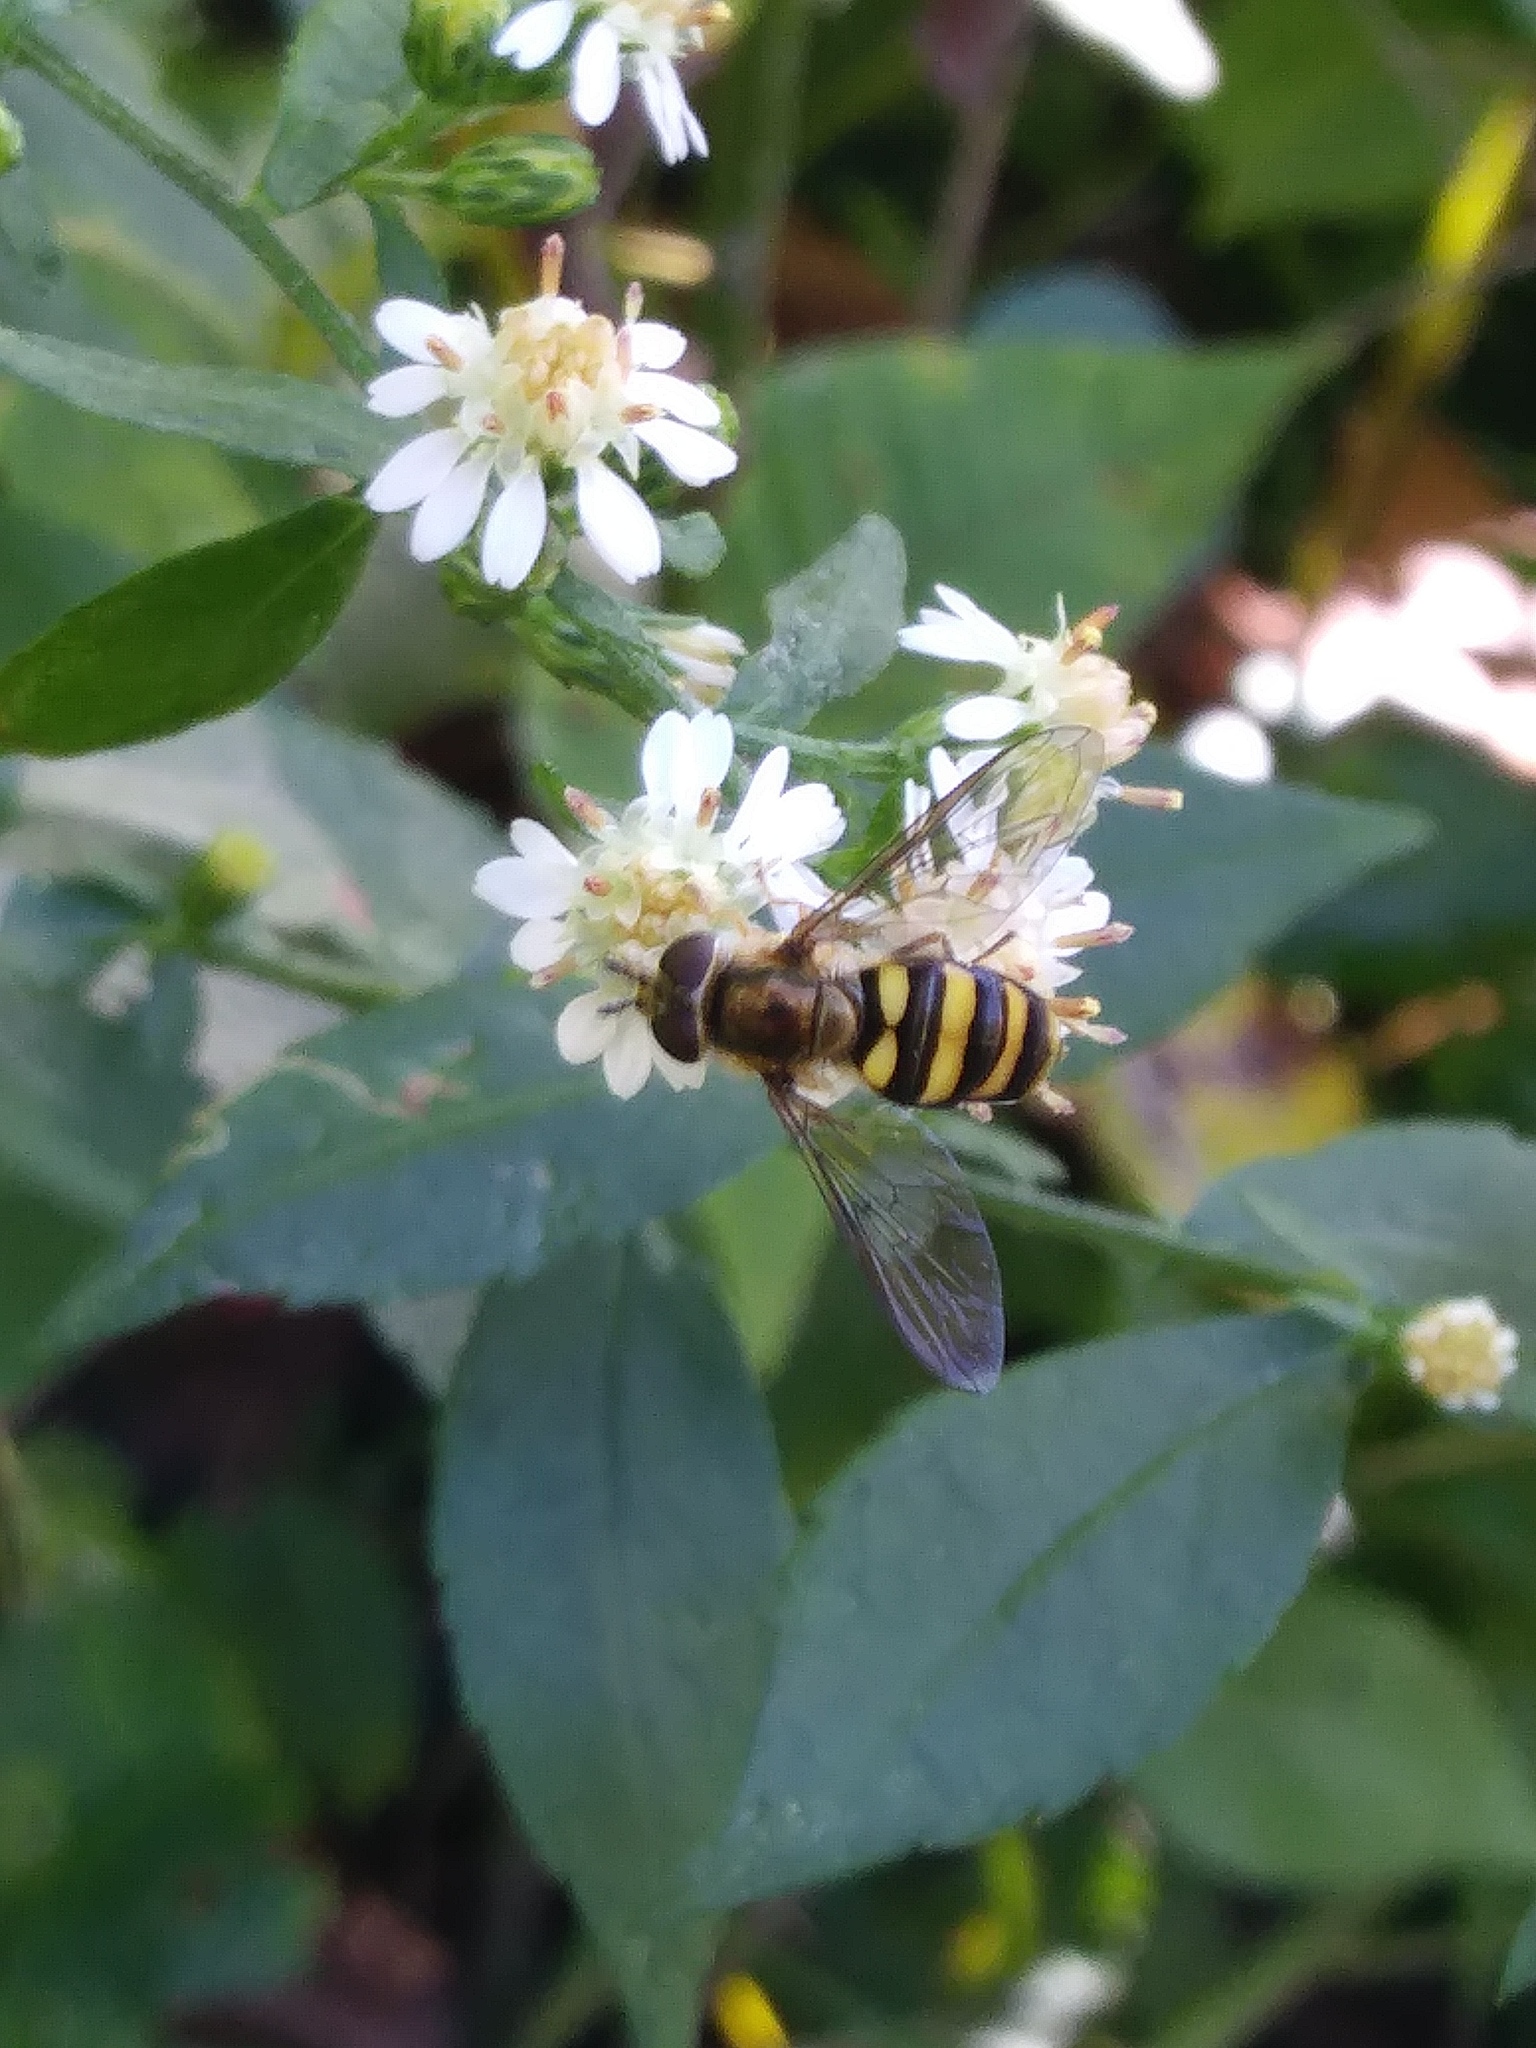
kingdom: Animalia
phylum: Arthropoda
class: Insecta
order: Diptera
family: Syrphidae
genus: Eupeodes
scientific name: Eupeodes
